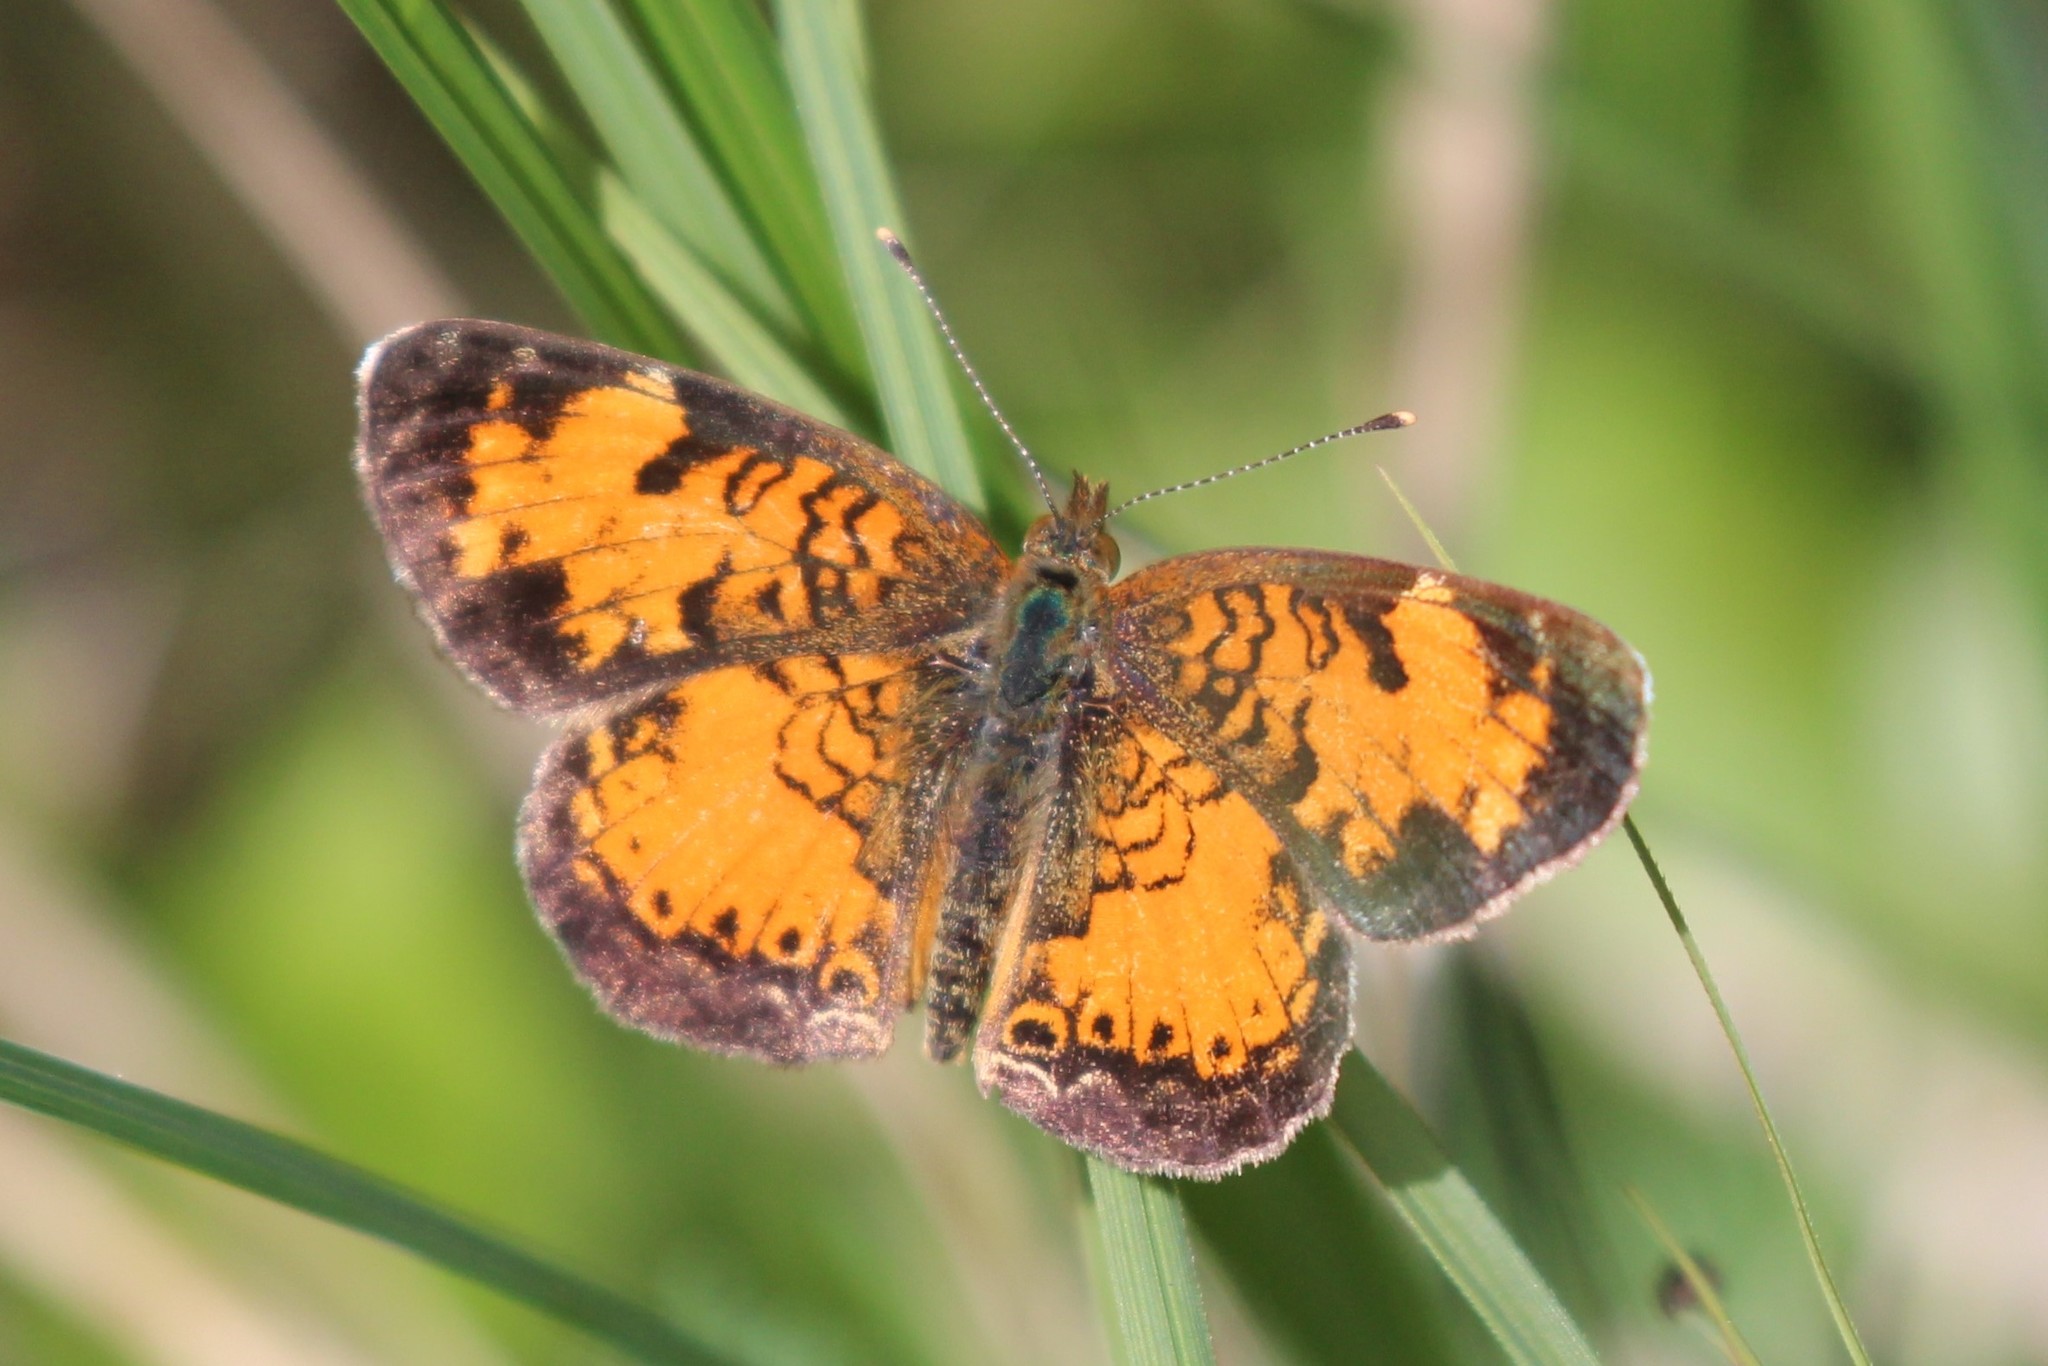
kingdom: Animalia
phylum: Arthropoda
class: Insecta
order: Lepidoptera
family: Nymphalidae
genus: Phyciodes
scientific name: Phyciodes tharos
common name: Pearl crescent
